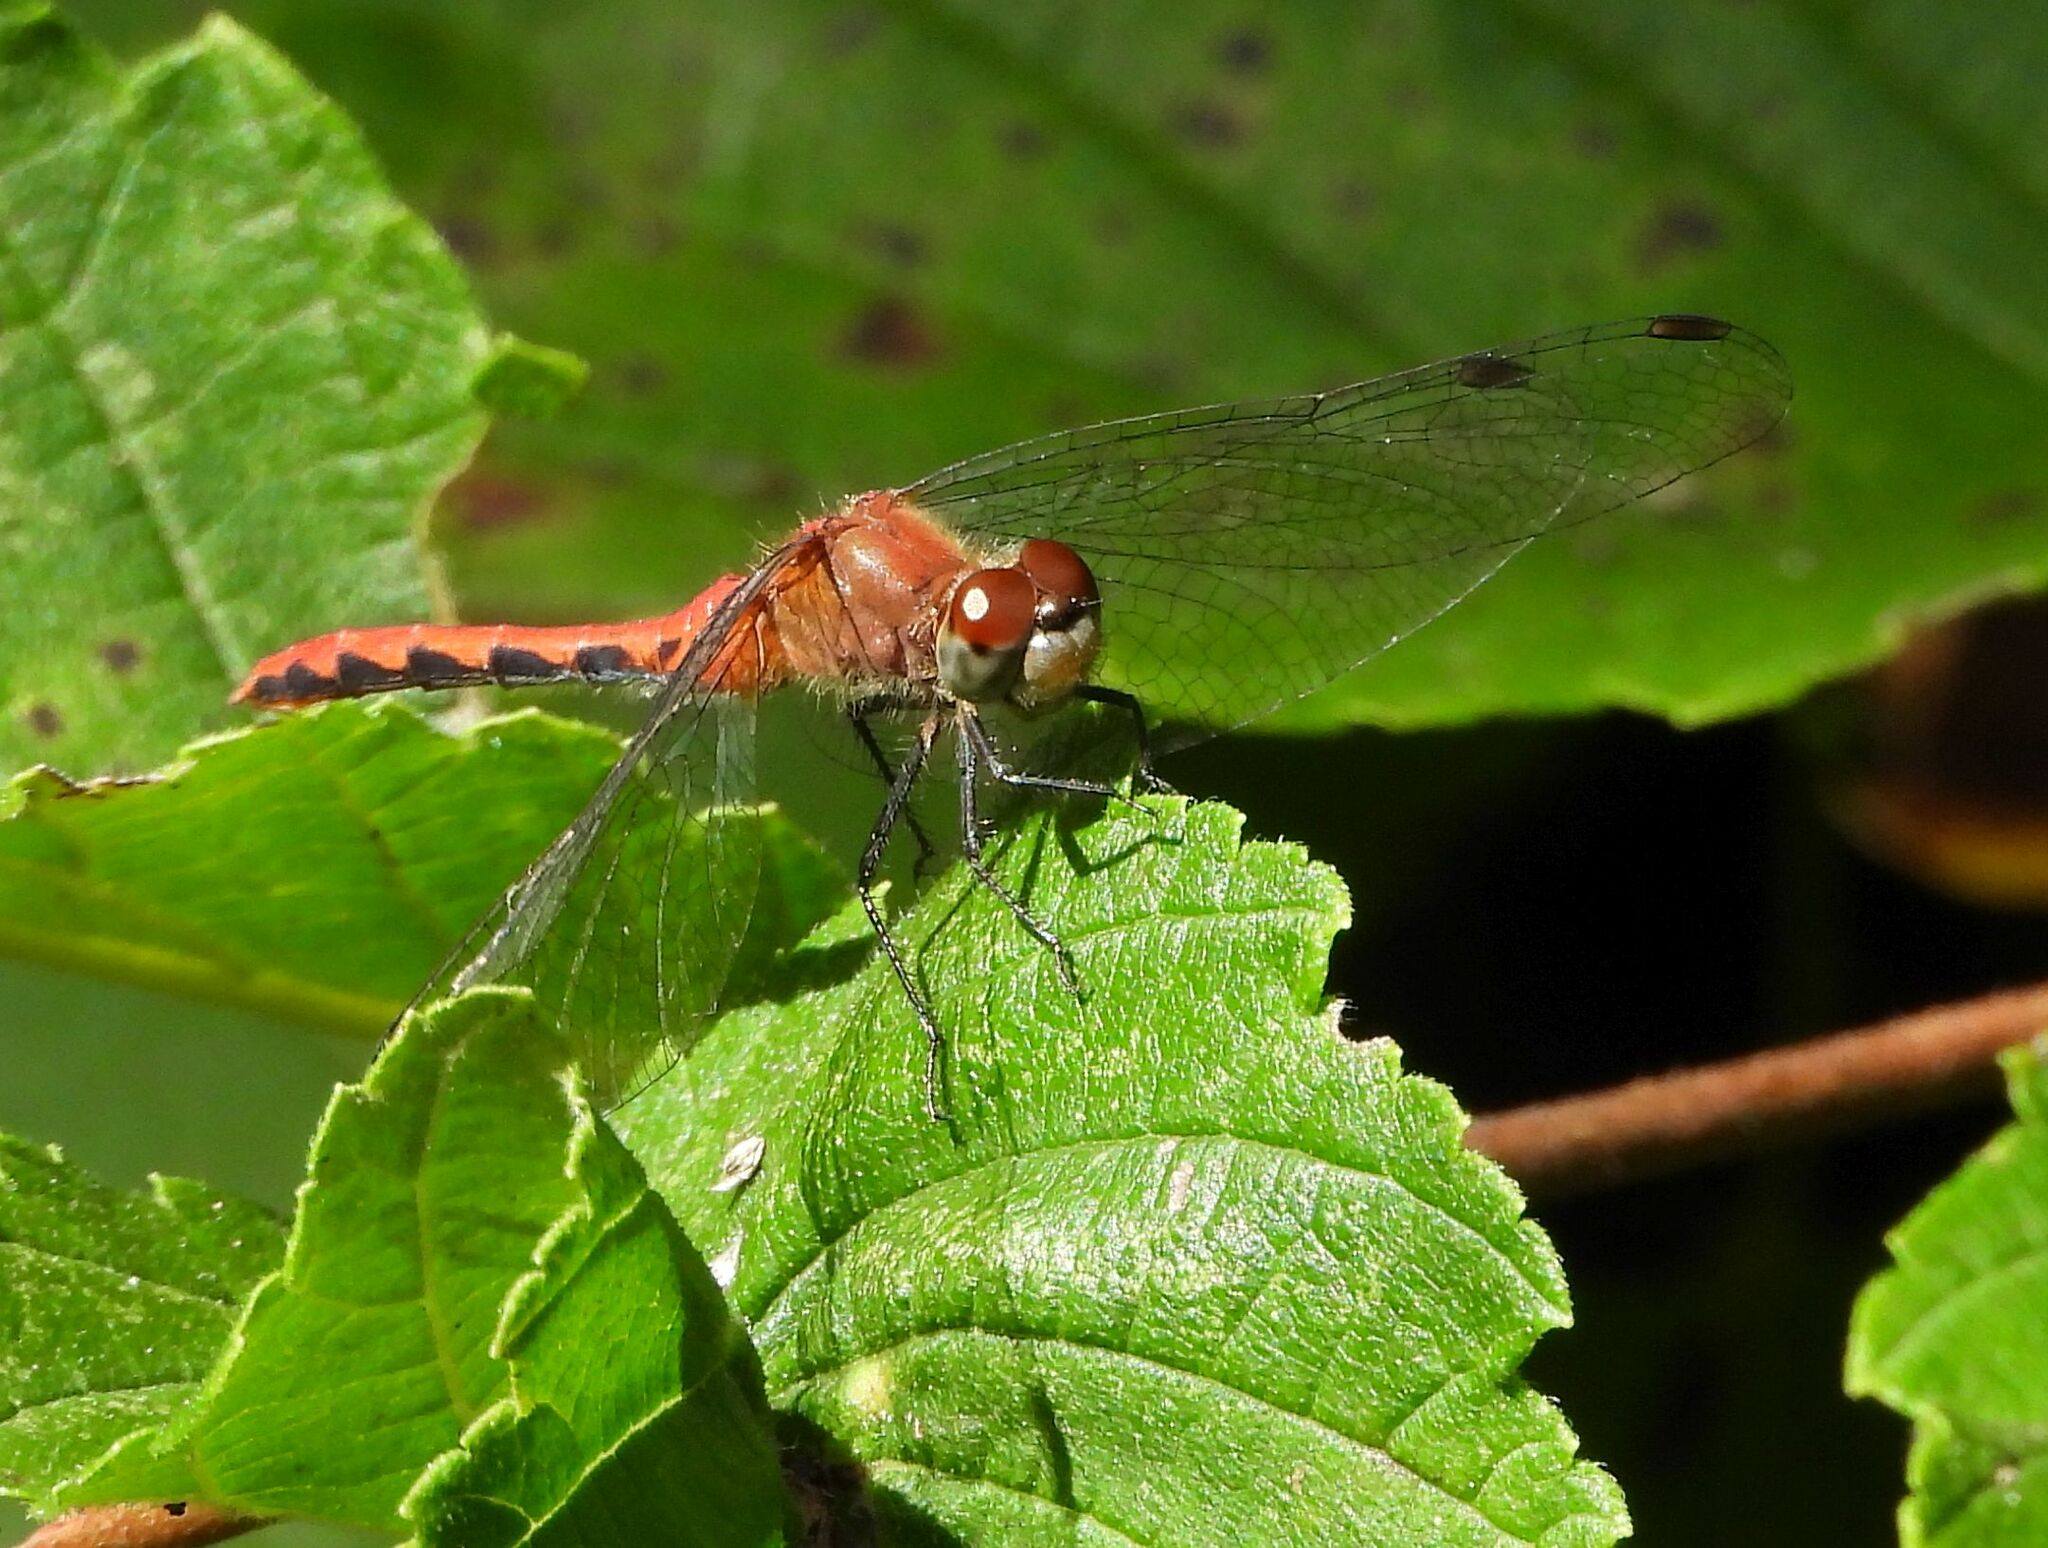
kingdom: Animalia
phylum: Arthropoda
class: Insecta
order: Odonata
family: Libellulidae
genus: Sympetrum
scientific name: Sympetrum obtrusum
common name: White-faced meadowhawk
